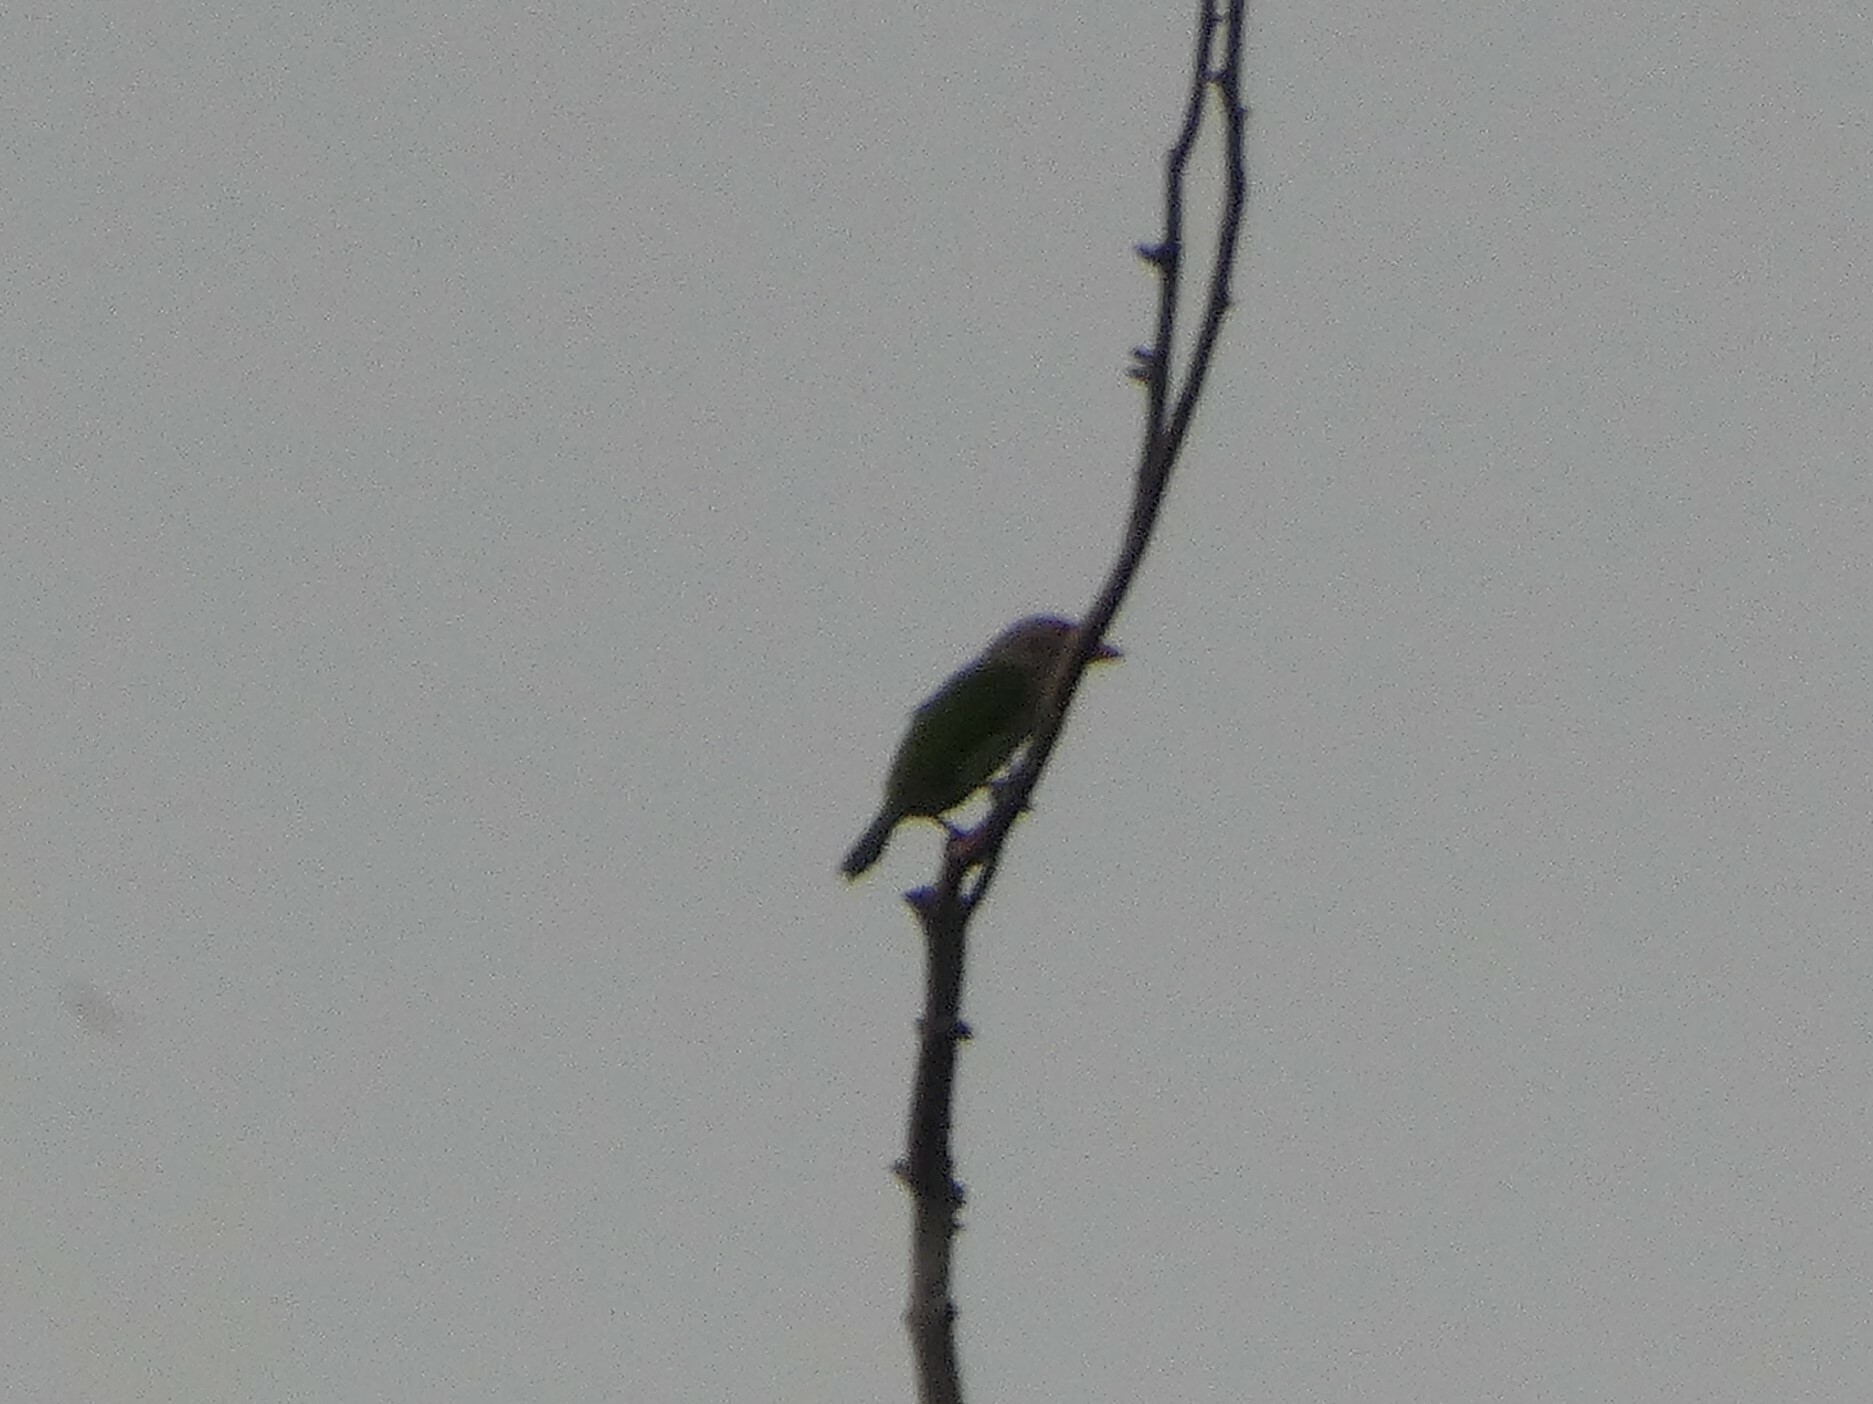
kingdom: Animalia
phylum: Chordata
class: Aves
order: Piciformes
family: Megalaimidae
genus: Psilopogon
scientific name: Psilopogon lineatus
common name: Lineated barbet
